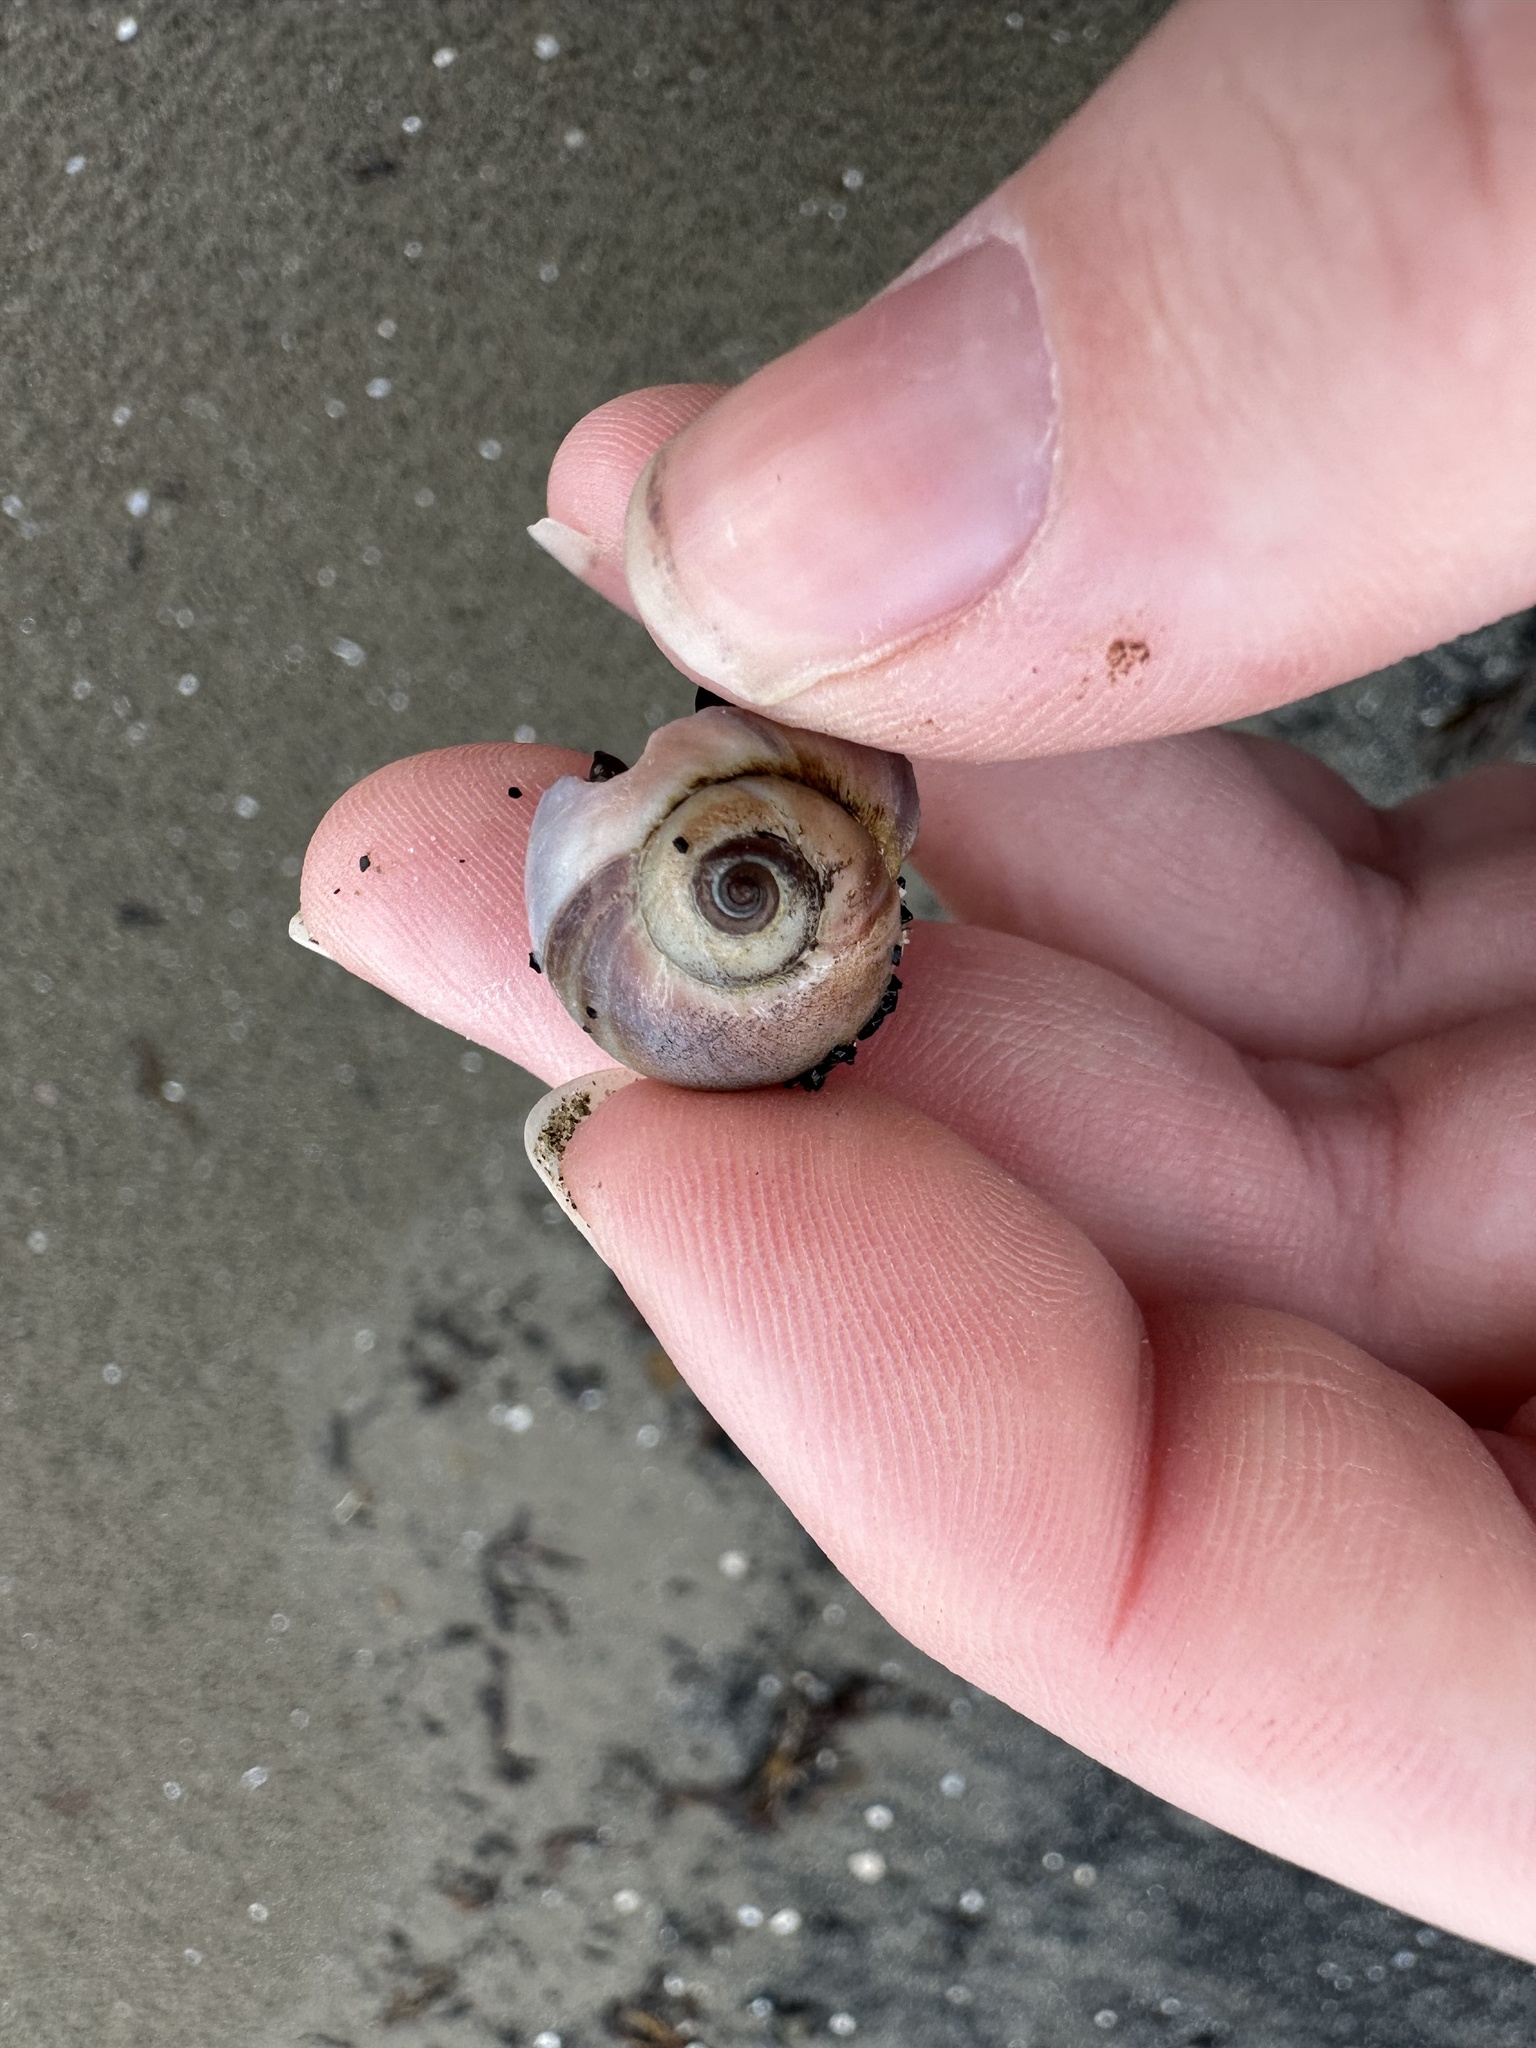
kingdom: Animalia
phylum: Mollusca
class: Gastropoda
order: Littorinimorpha
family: Naticidae
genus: Euspira
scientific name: Euspira heros
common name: Common northern moonsnail
